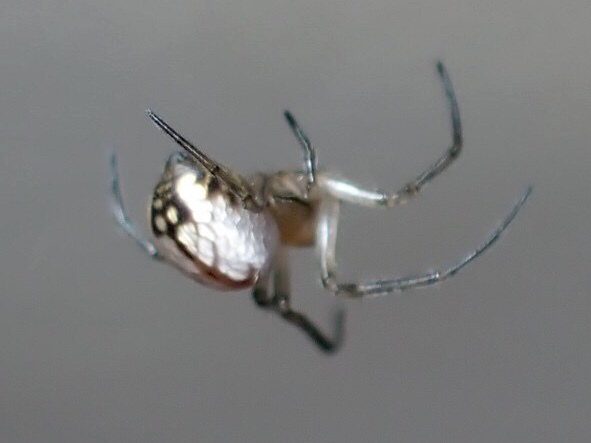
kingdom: Animalia
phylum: Arthropoda
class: Arachnida
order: Araneae
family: Tetragnathidae
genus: Leucauge
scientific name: Leucauge venusta
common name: Longjawed orb weavers
